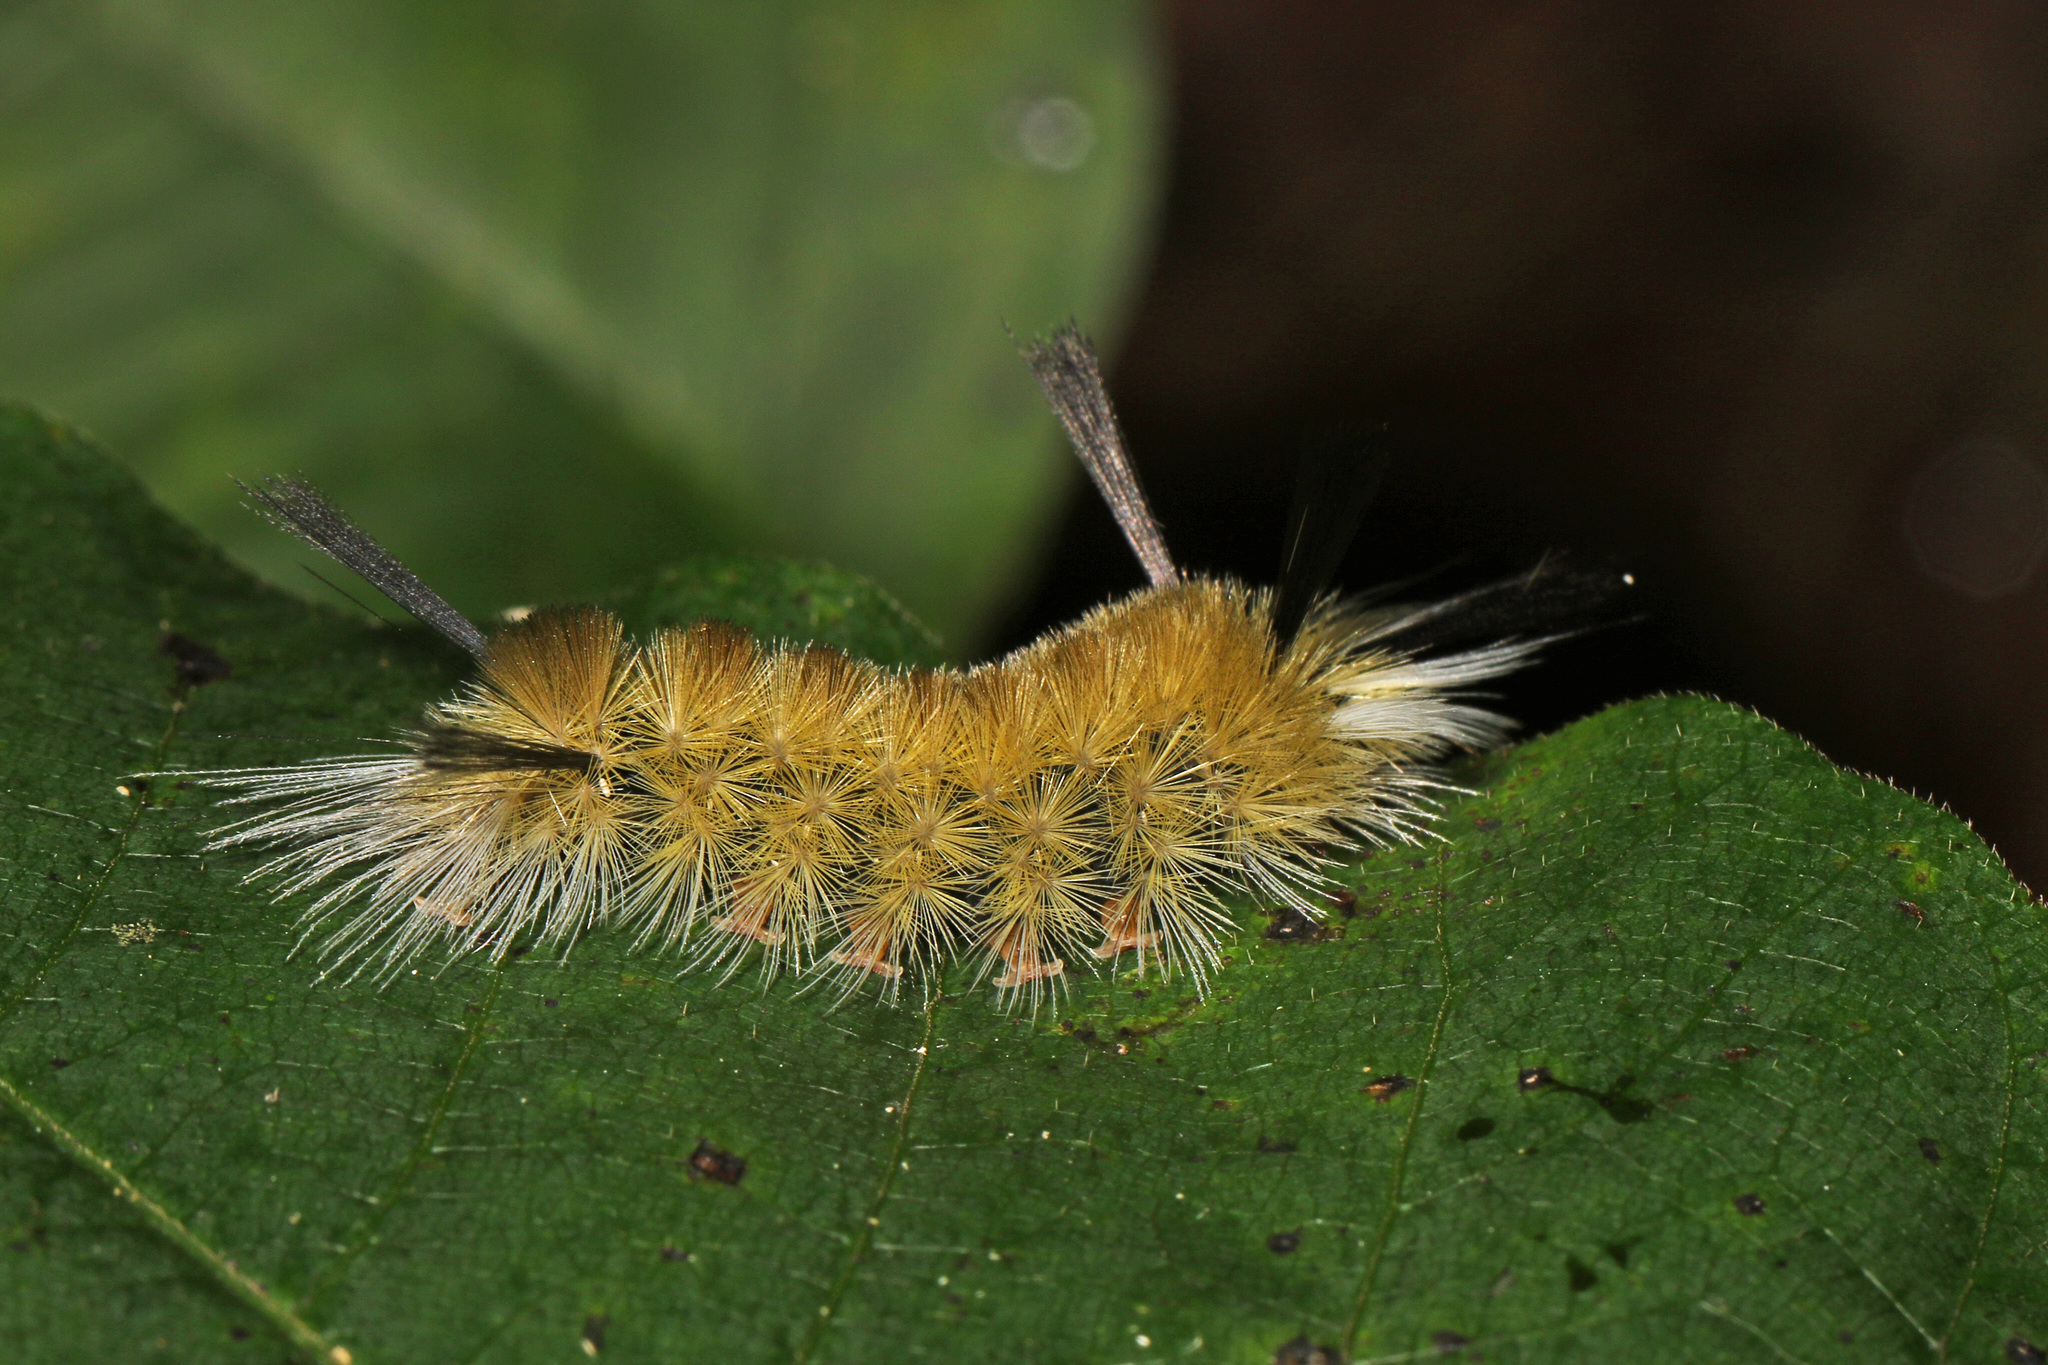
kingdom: Animalia
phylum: Arthropoda
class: Insecta
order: Lepidoptera
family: Erebidae
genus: Halysidota
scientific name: Halysidota tessellaris
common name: Banded tussock moth
